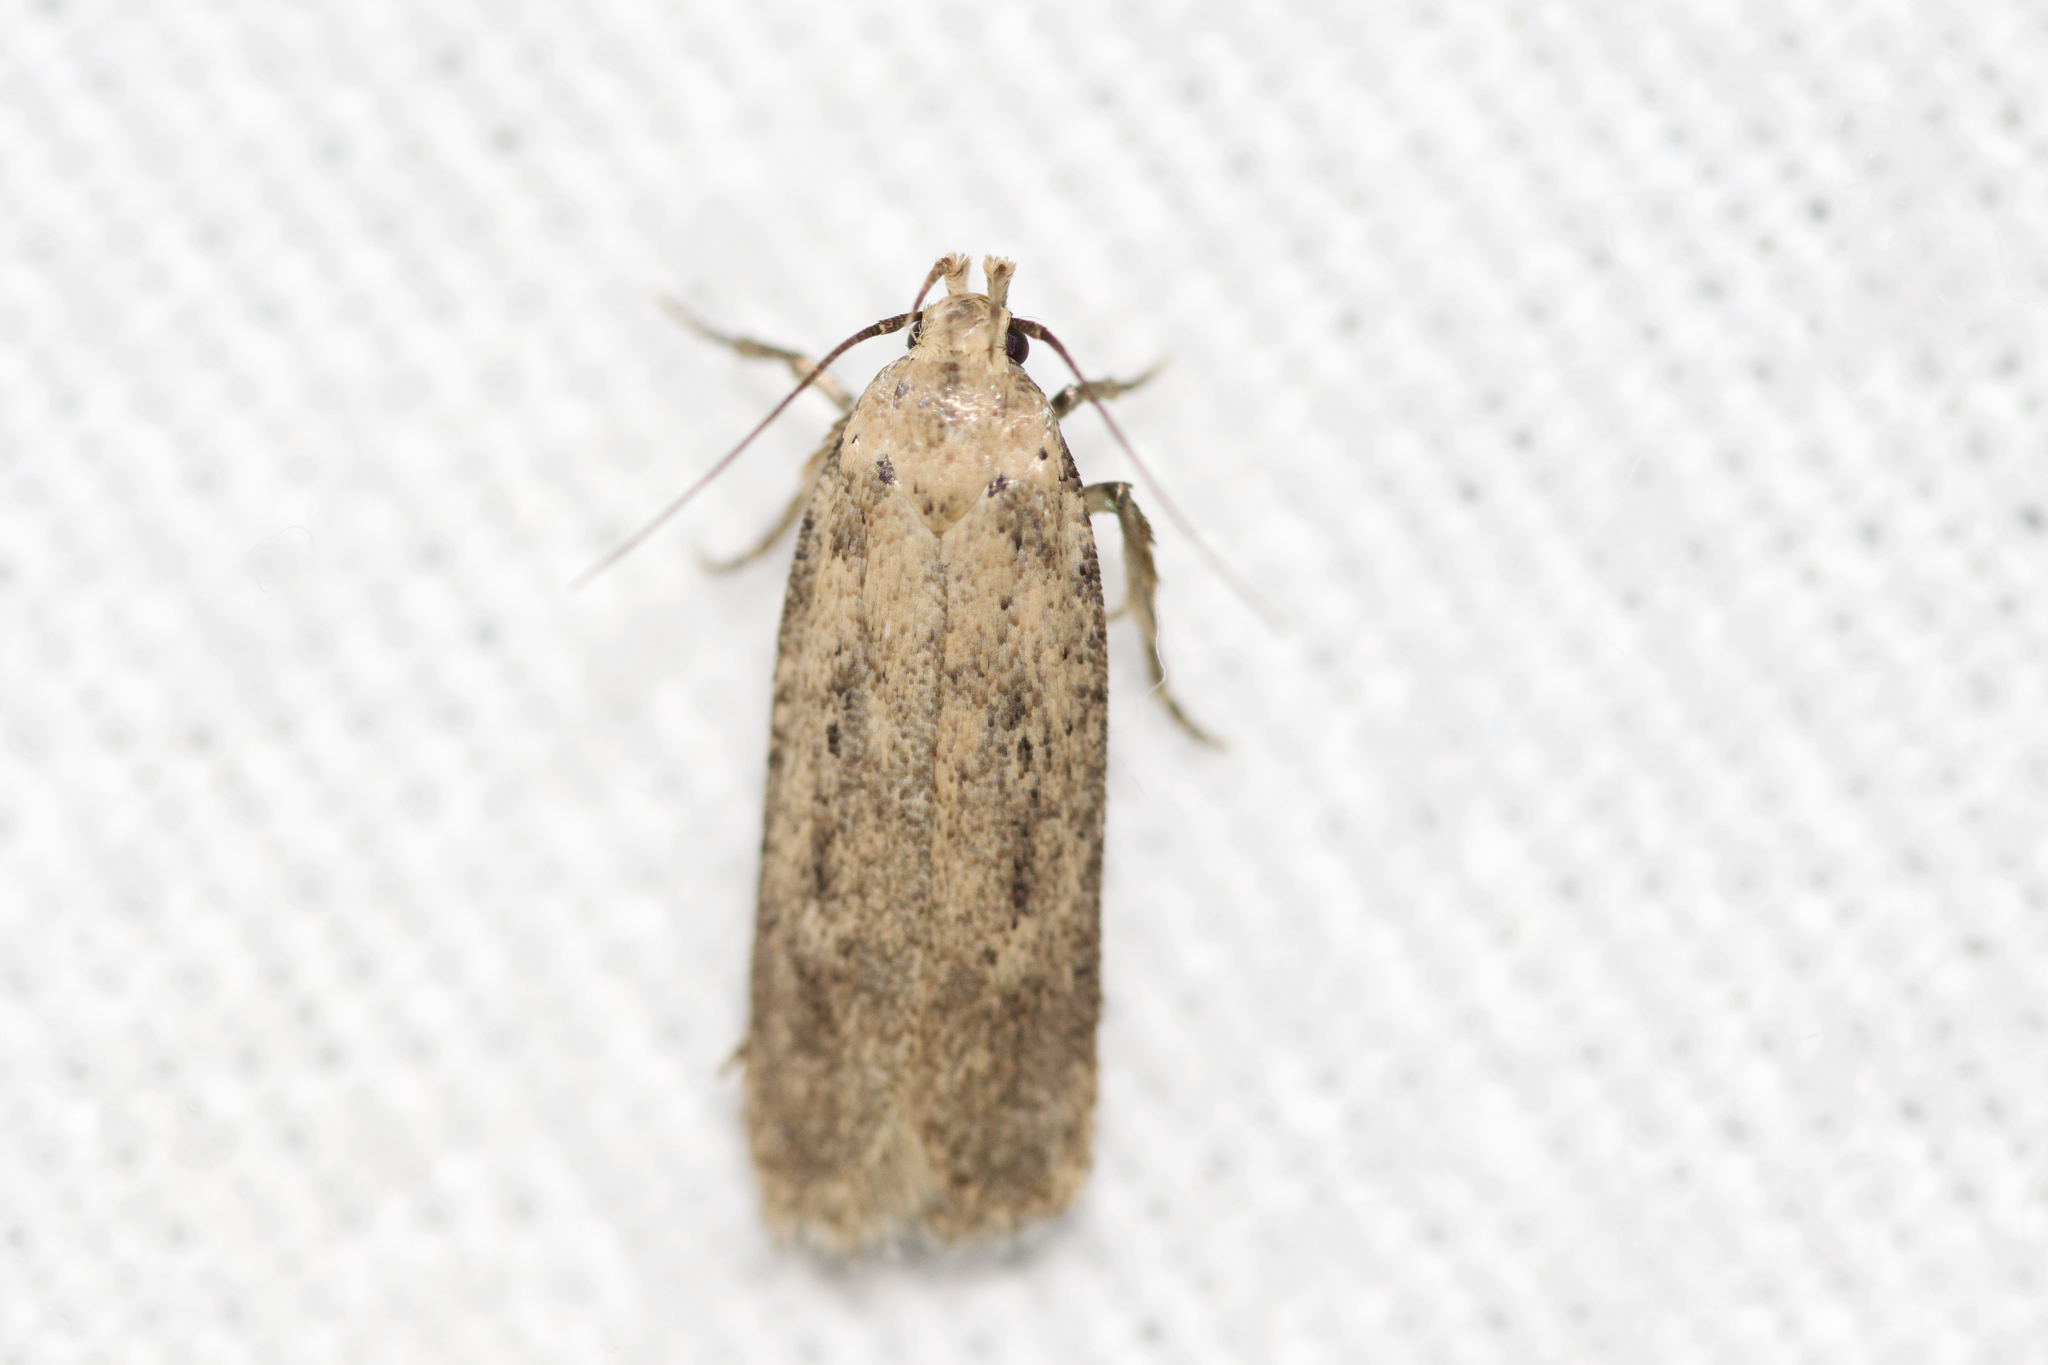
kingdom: Animalia
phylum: Arthropoda
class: Insecta
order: Lepidoptera
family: Gelechiidae
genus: Platyedra
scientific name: Platyedra subcinerea
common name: Moth
